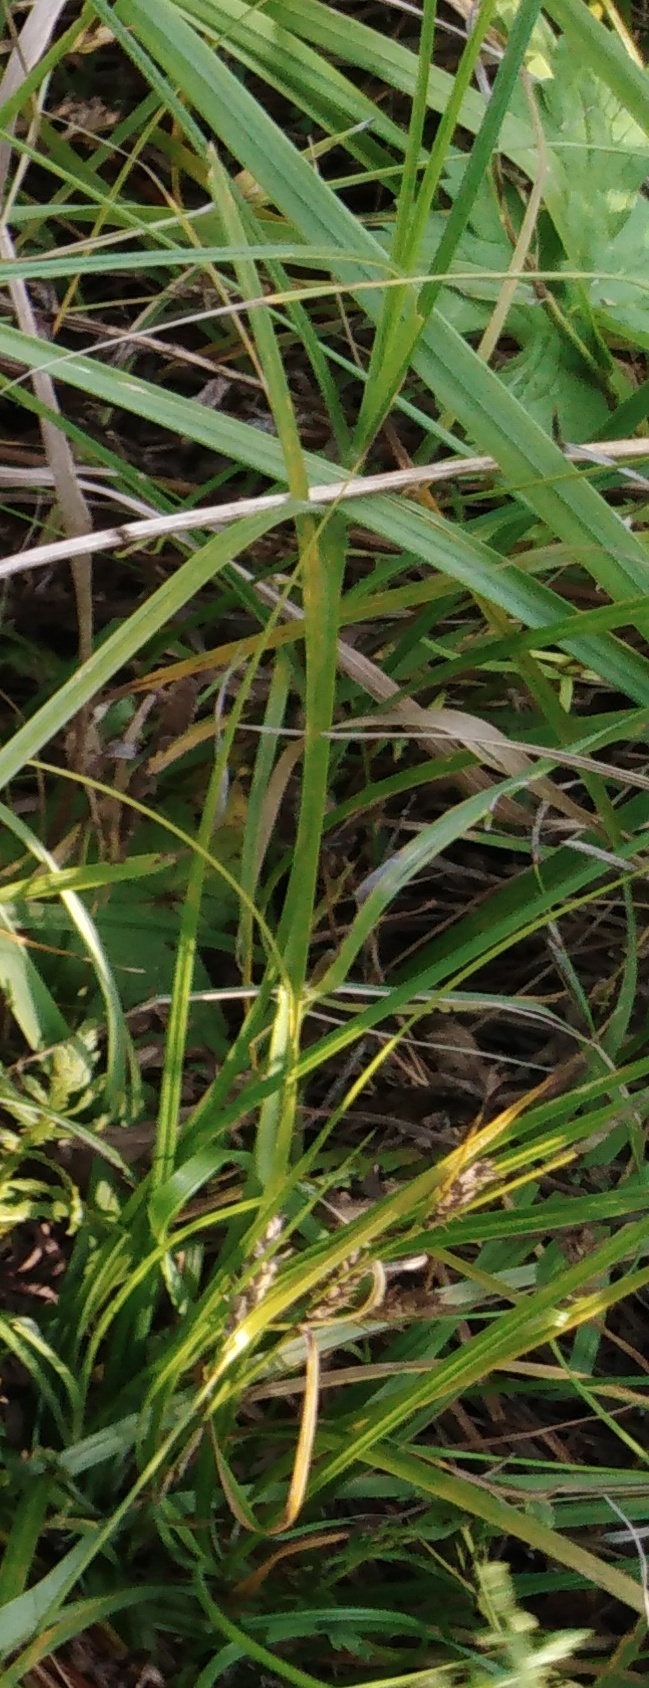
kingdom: Plantae
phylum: Tracheophyta
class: Liliopsida
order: Poales
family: Cyperaceae
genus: Carex
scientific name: Carex hirta
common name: Hairy sedge
